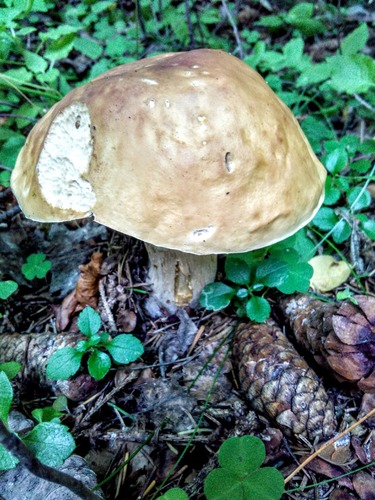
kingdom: Fungi
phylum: Basidiomycota
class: Agaricomycetes
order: Boletales
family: Boletaceae
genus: Boletus
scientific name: Boletus edulis
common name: Cep
